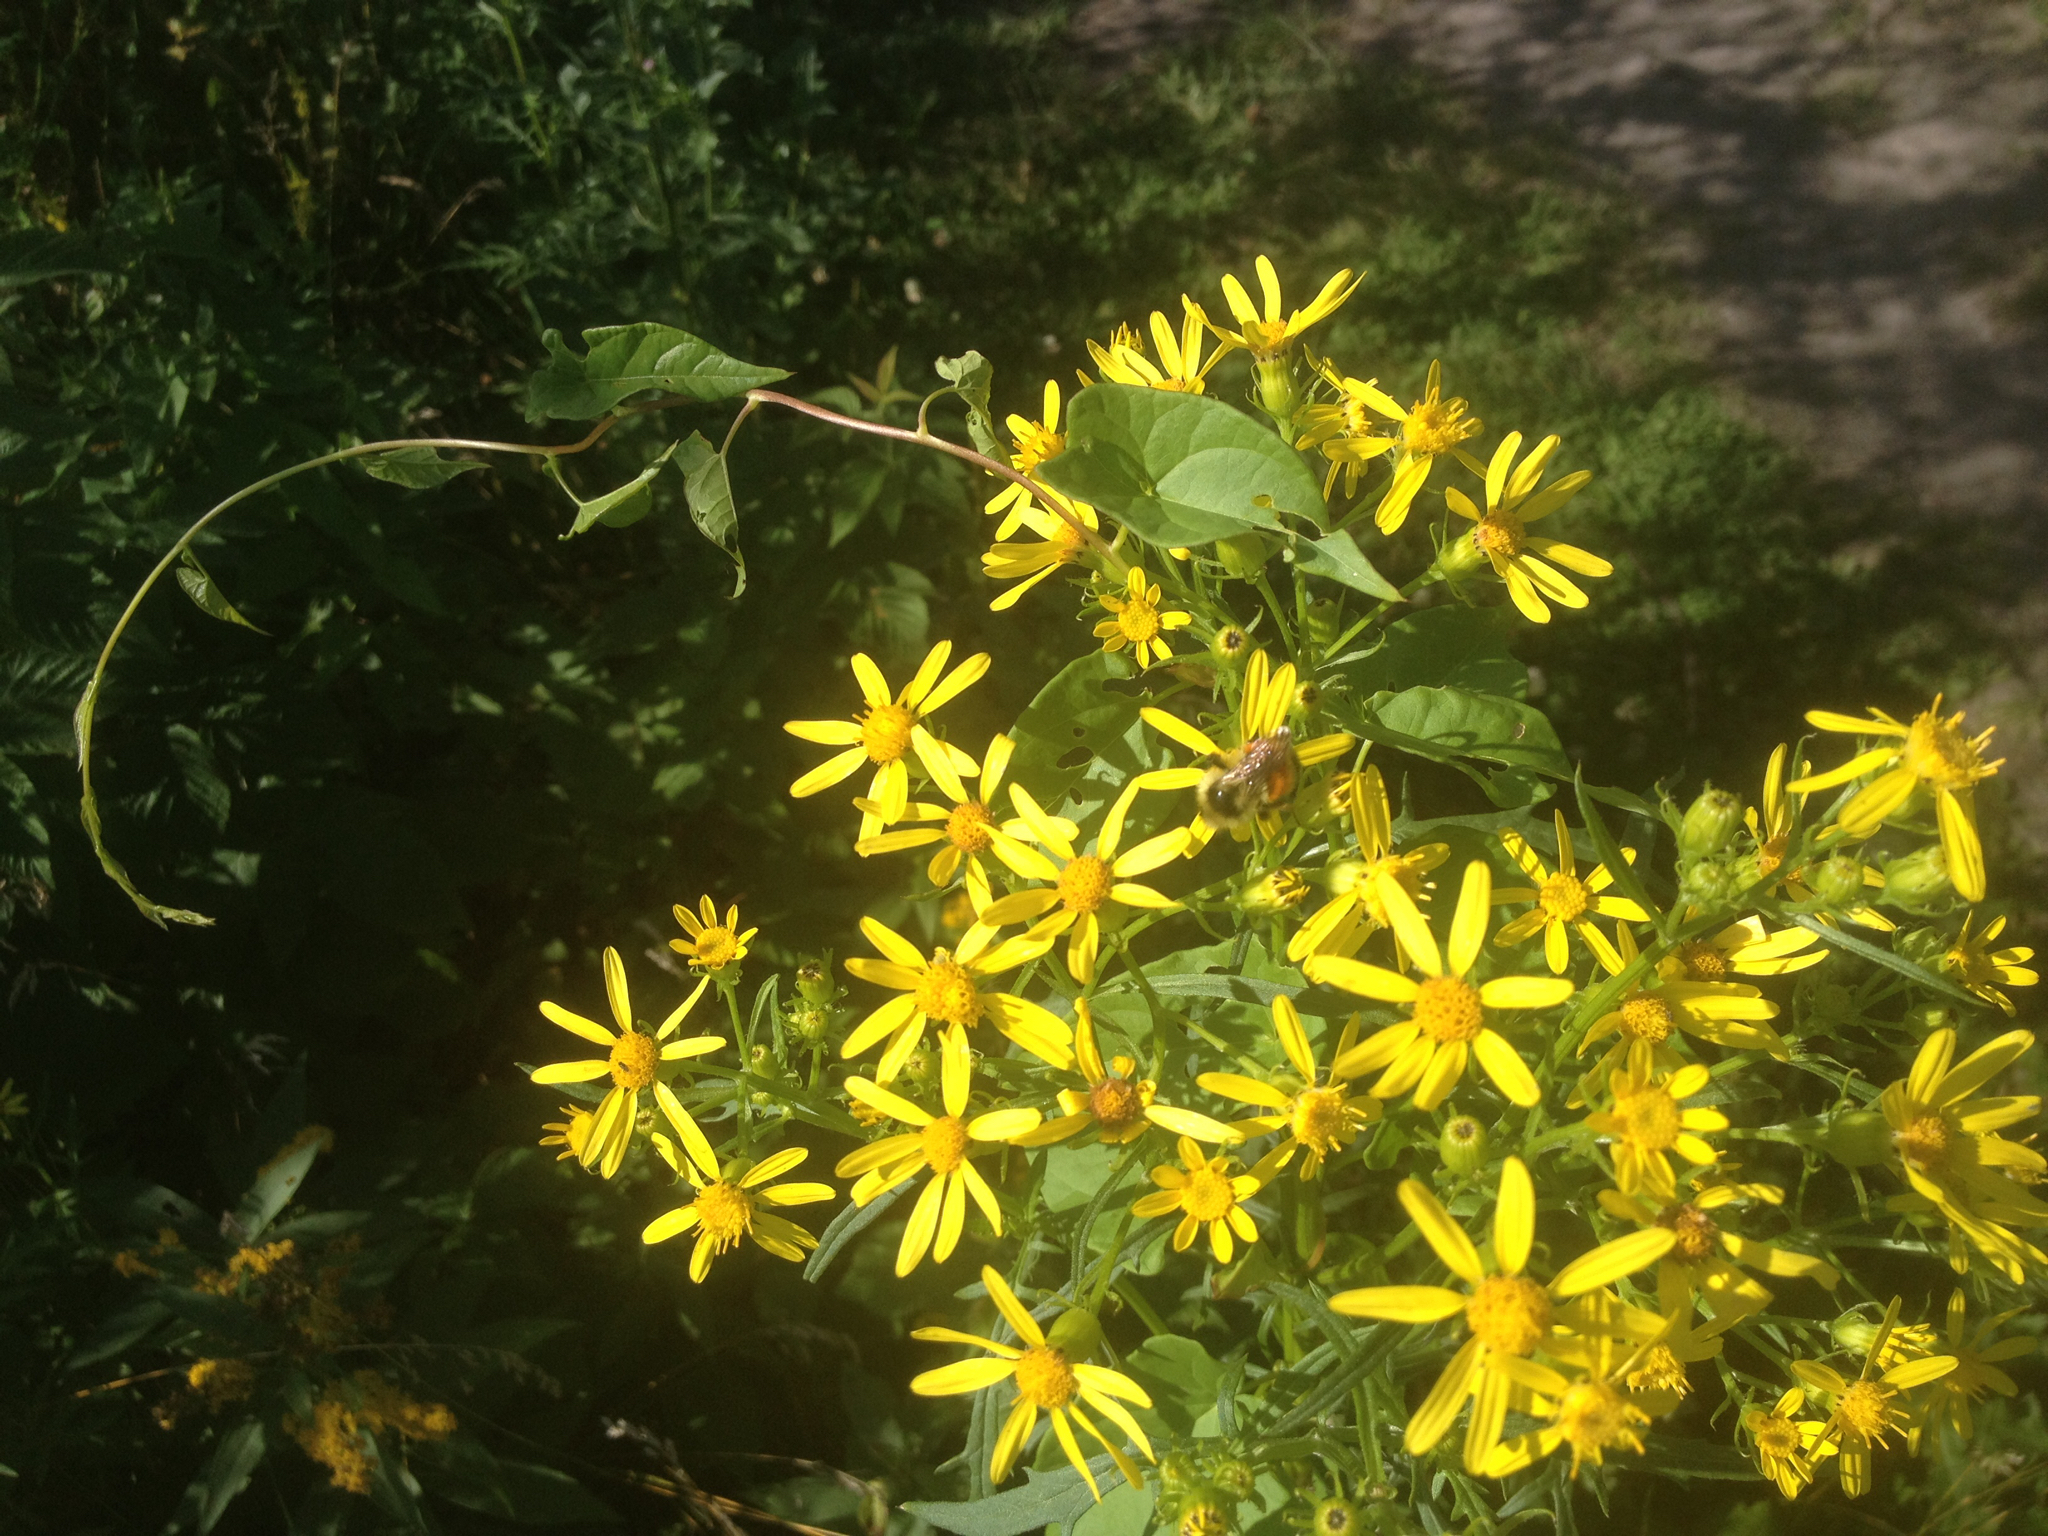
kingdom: Plantae
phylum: Tracheophyta
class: Magnoliopsida
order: Asterales
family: Asteraceae
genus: Senecio
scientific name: Senecio eremophilus
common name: Desert ragwort
